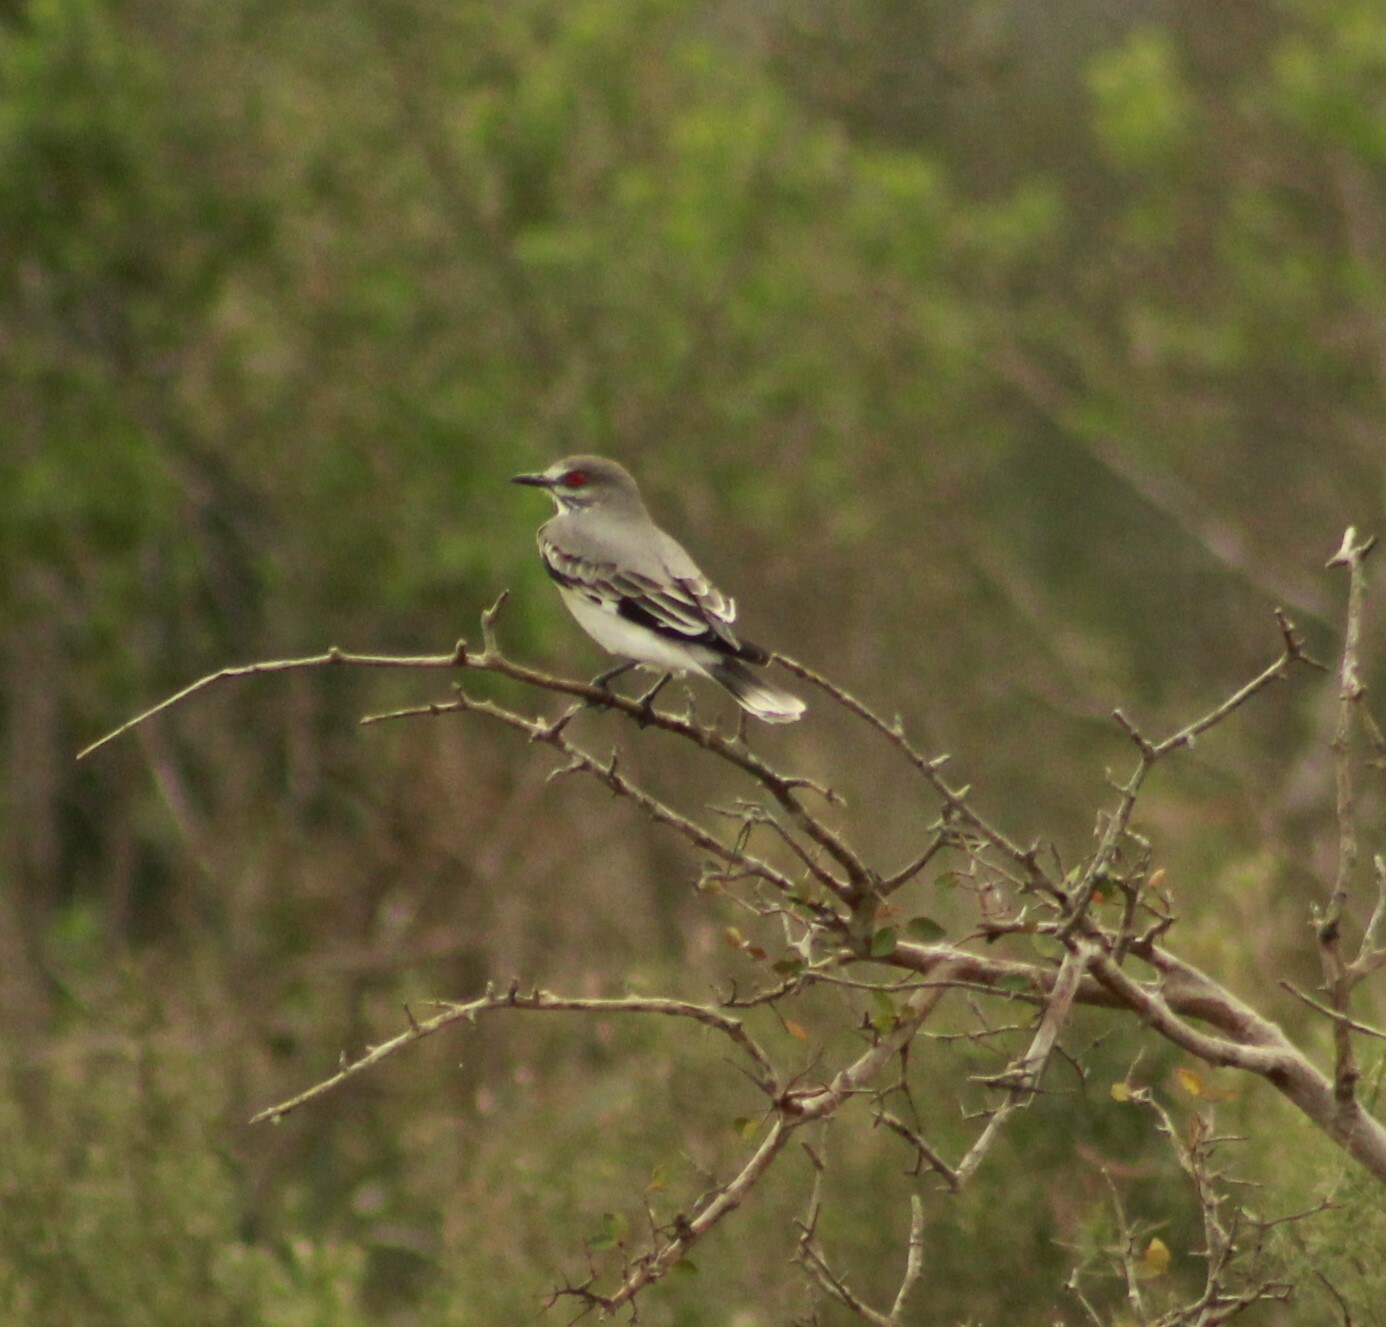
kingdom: Animalia
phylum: Chordata
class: Aves
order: Passeriformes
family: Tyrannidae
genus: Xolmis
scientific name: Xolmis cinereus
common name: Grey monjita
